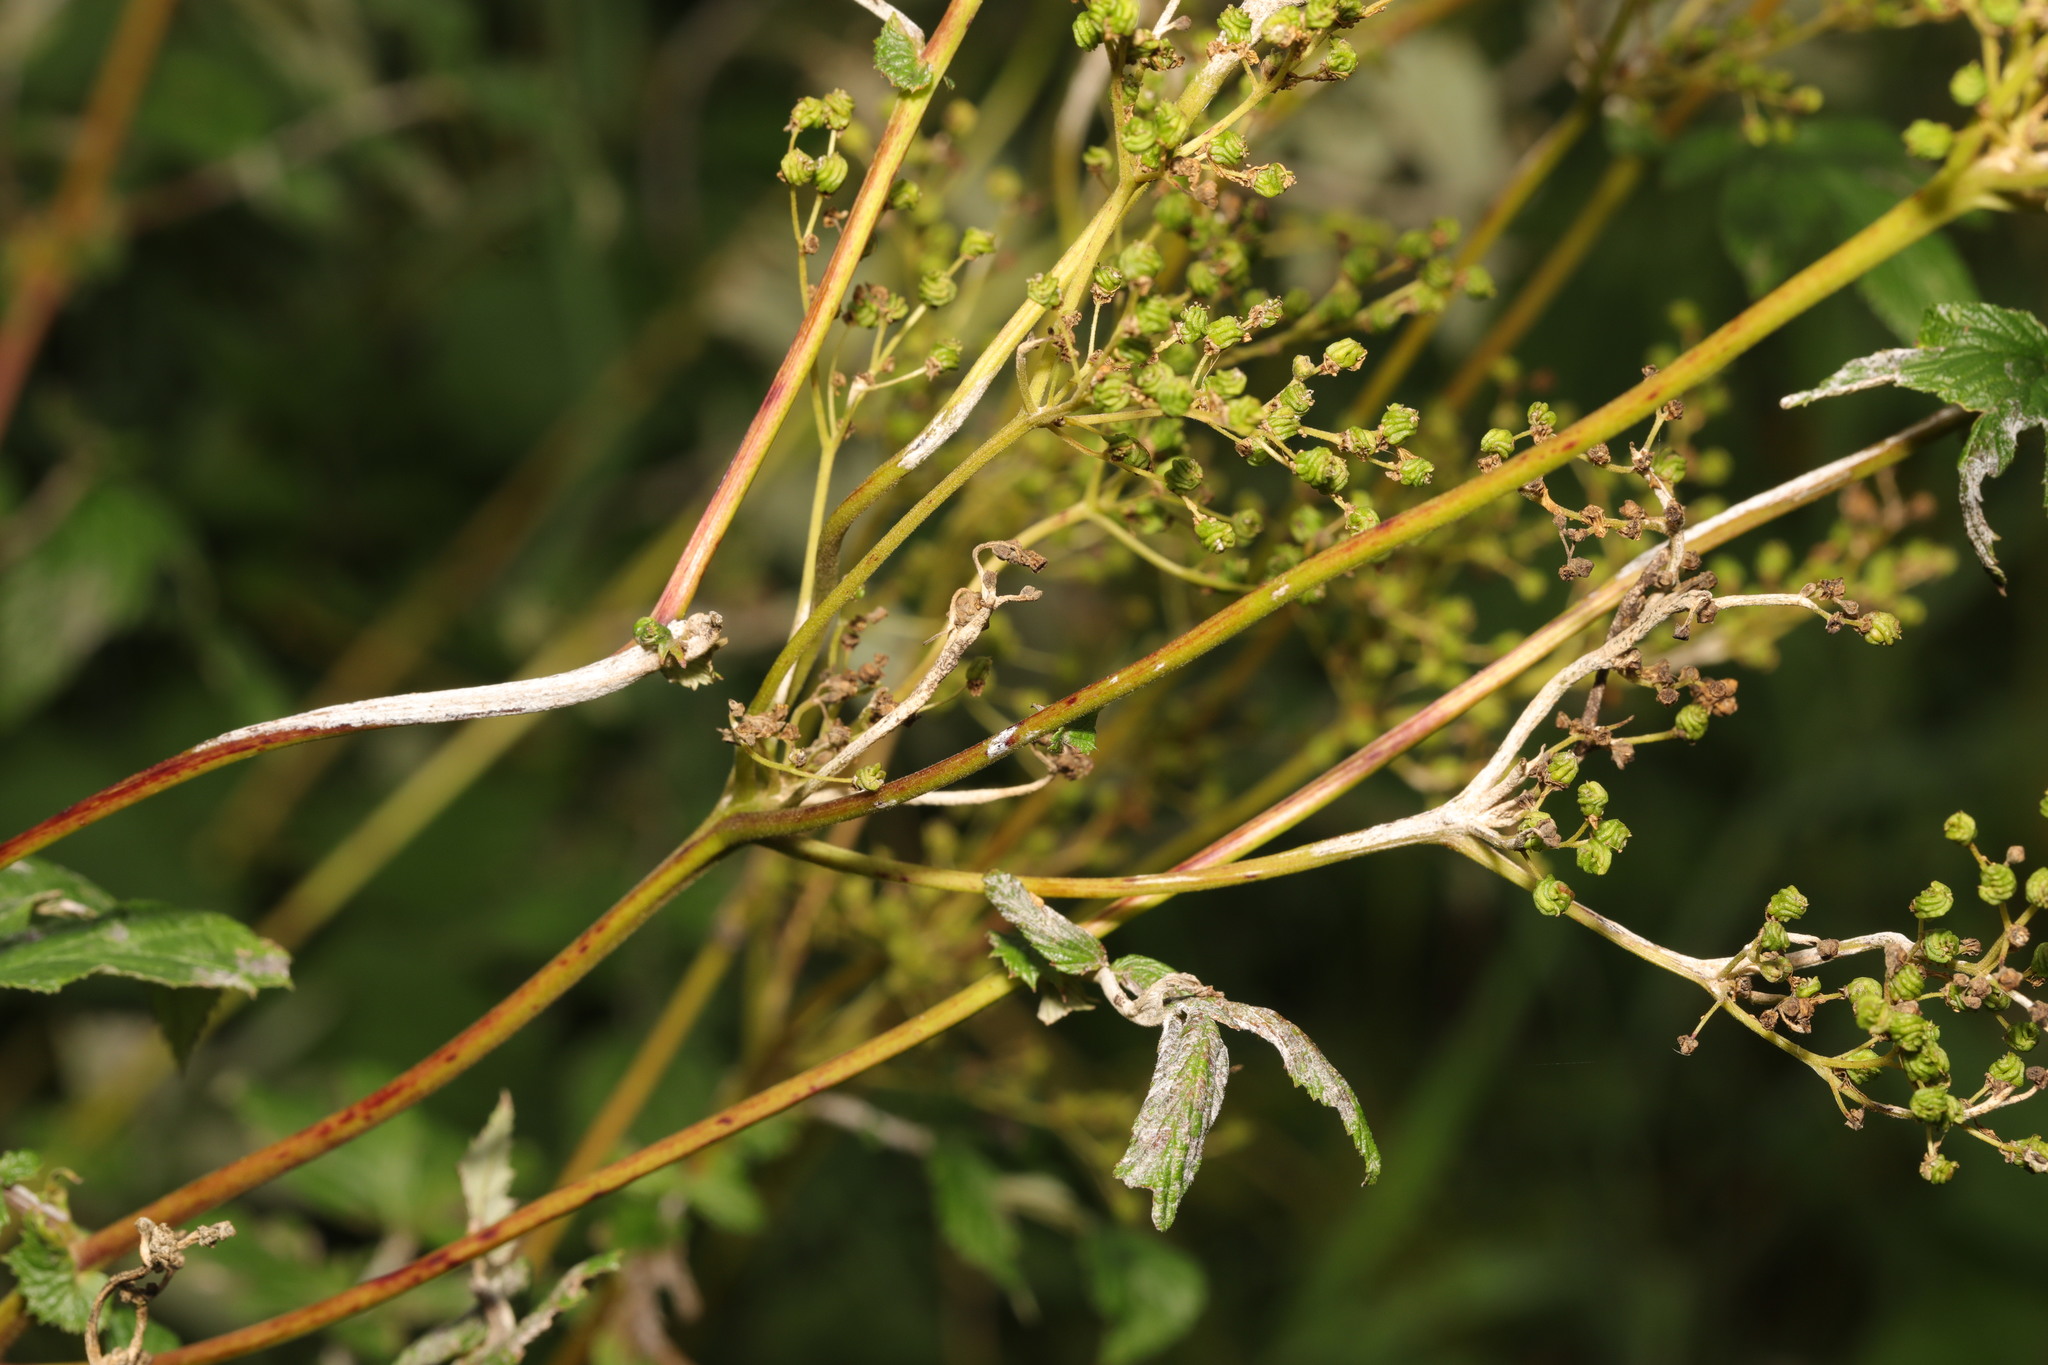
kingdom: Fungi
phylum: Ascomycota
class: Leotiomycetes
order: Helotiales
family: Erysiphaceae
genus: Podosphaera
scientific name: Podosphaera filipendulae
